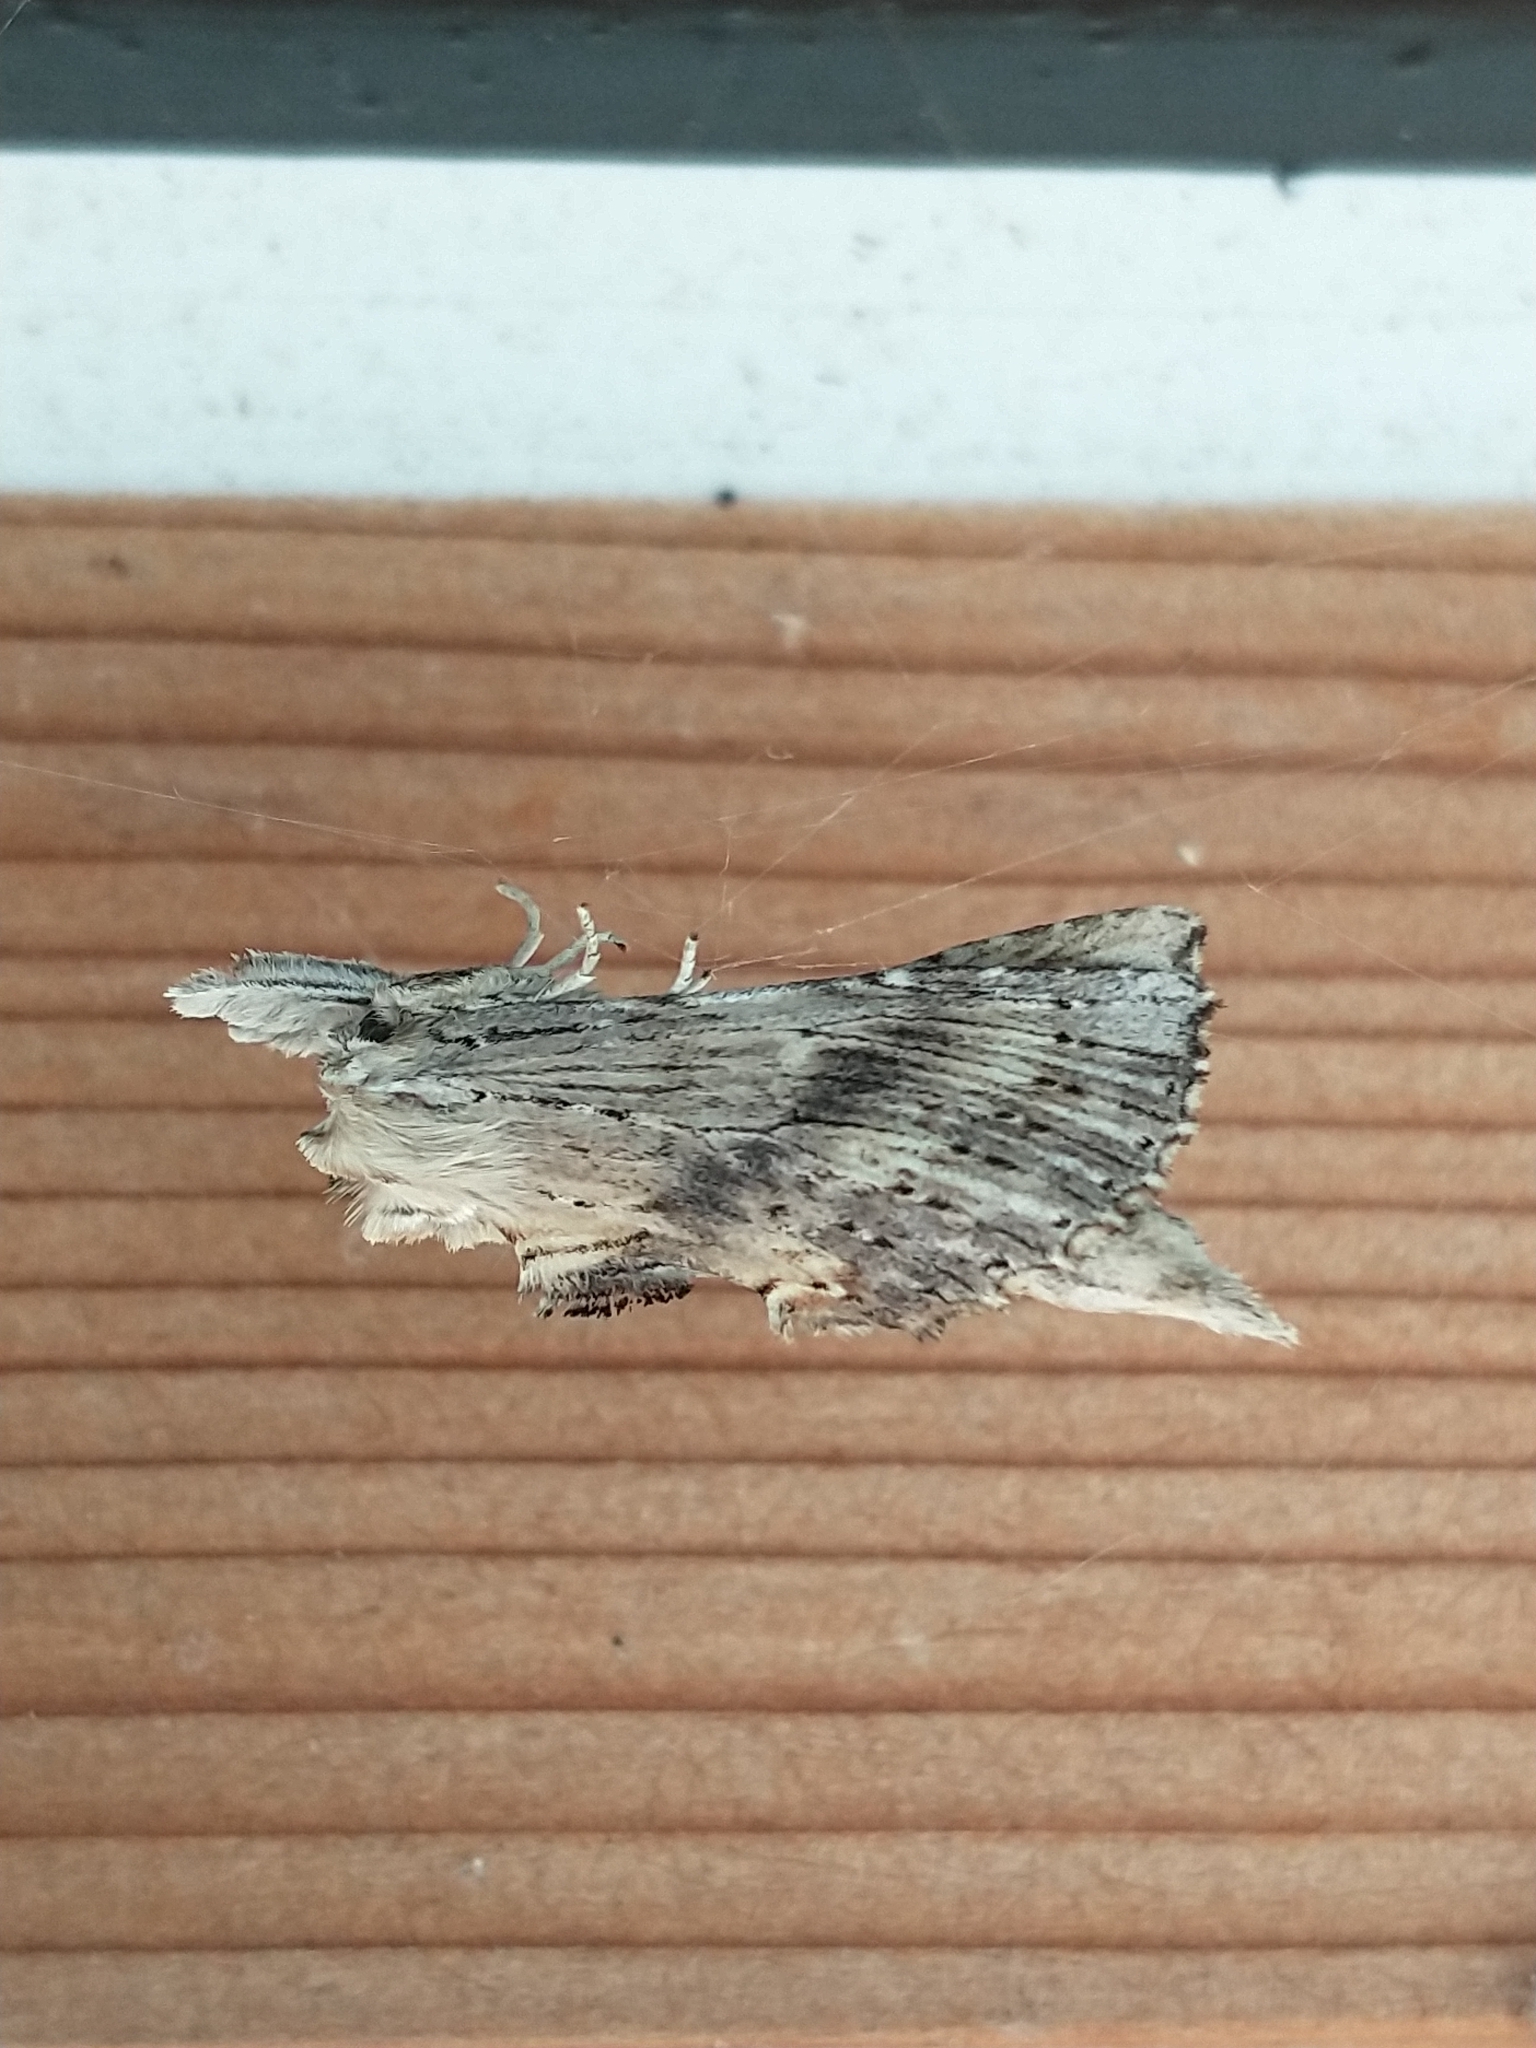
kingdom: Animalia
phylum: Arthropoda
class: Insecta
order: Lepidoptera
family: Notodontidae
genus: Pterostoma
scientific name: Pterostoma palpina
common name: Pale prominent
